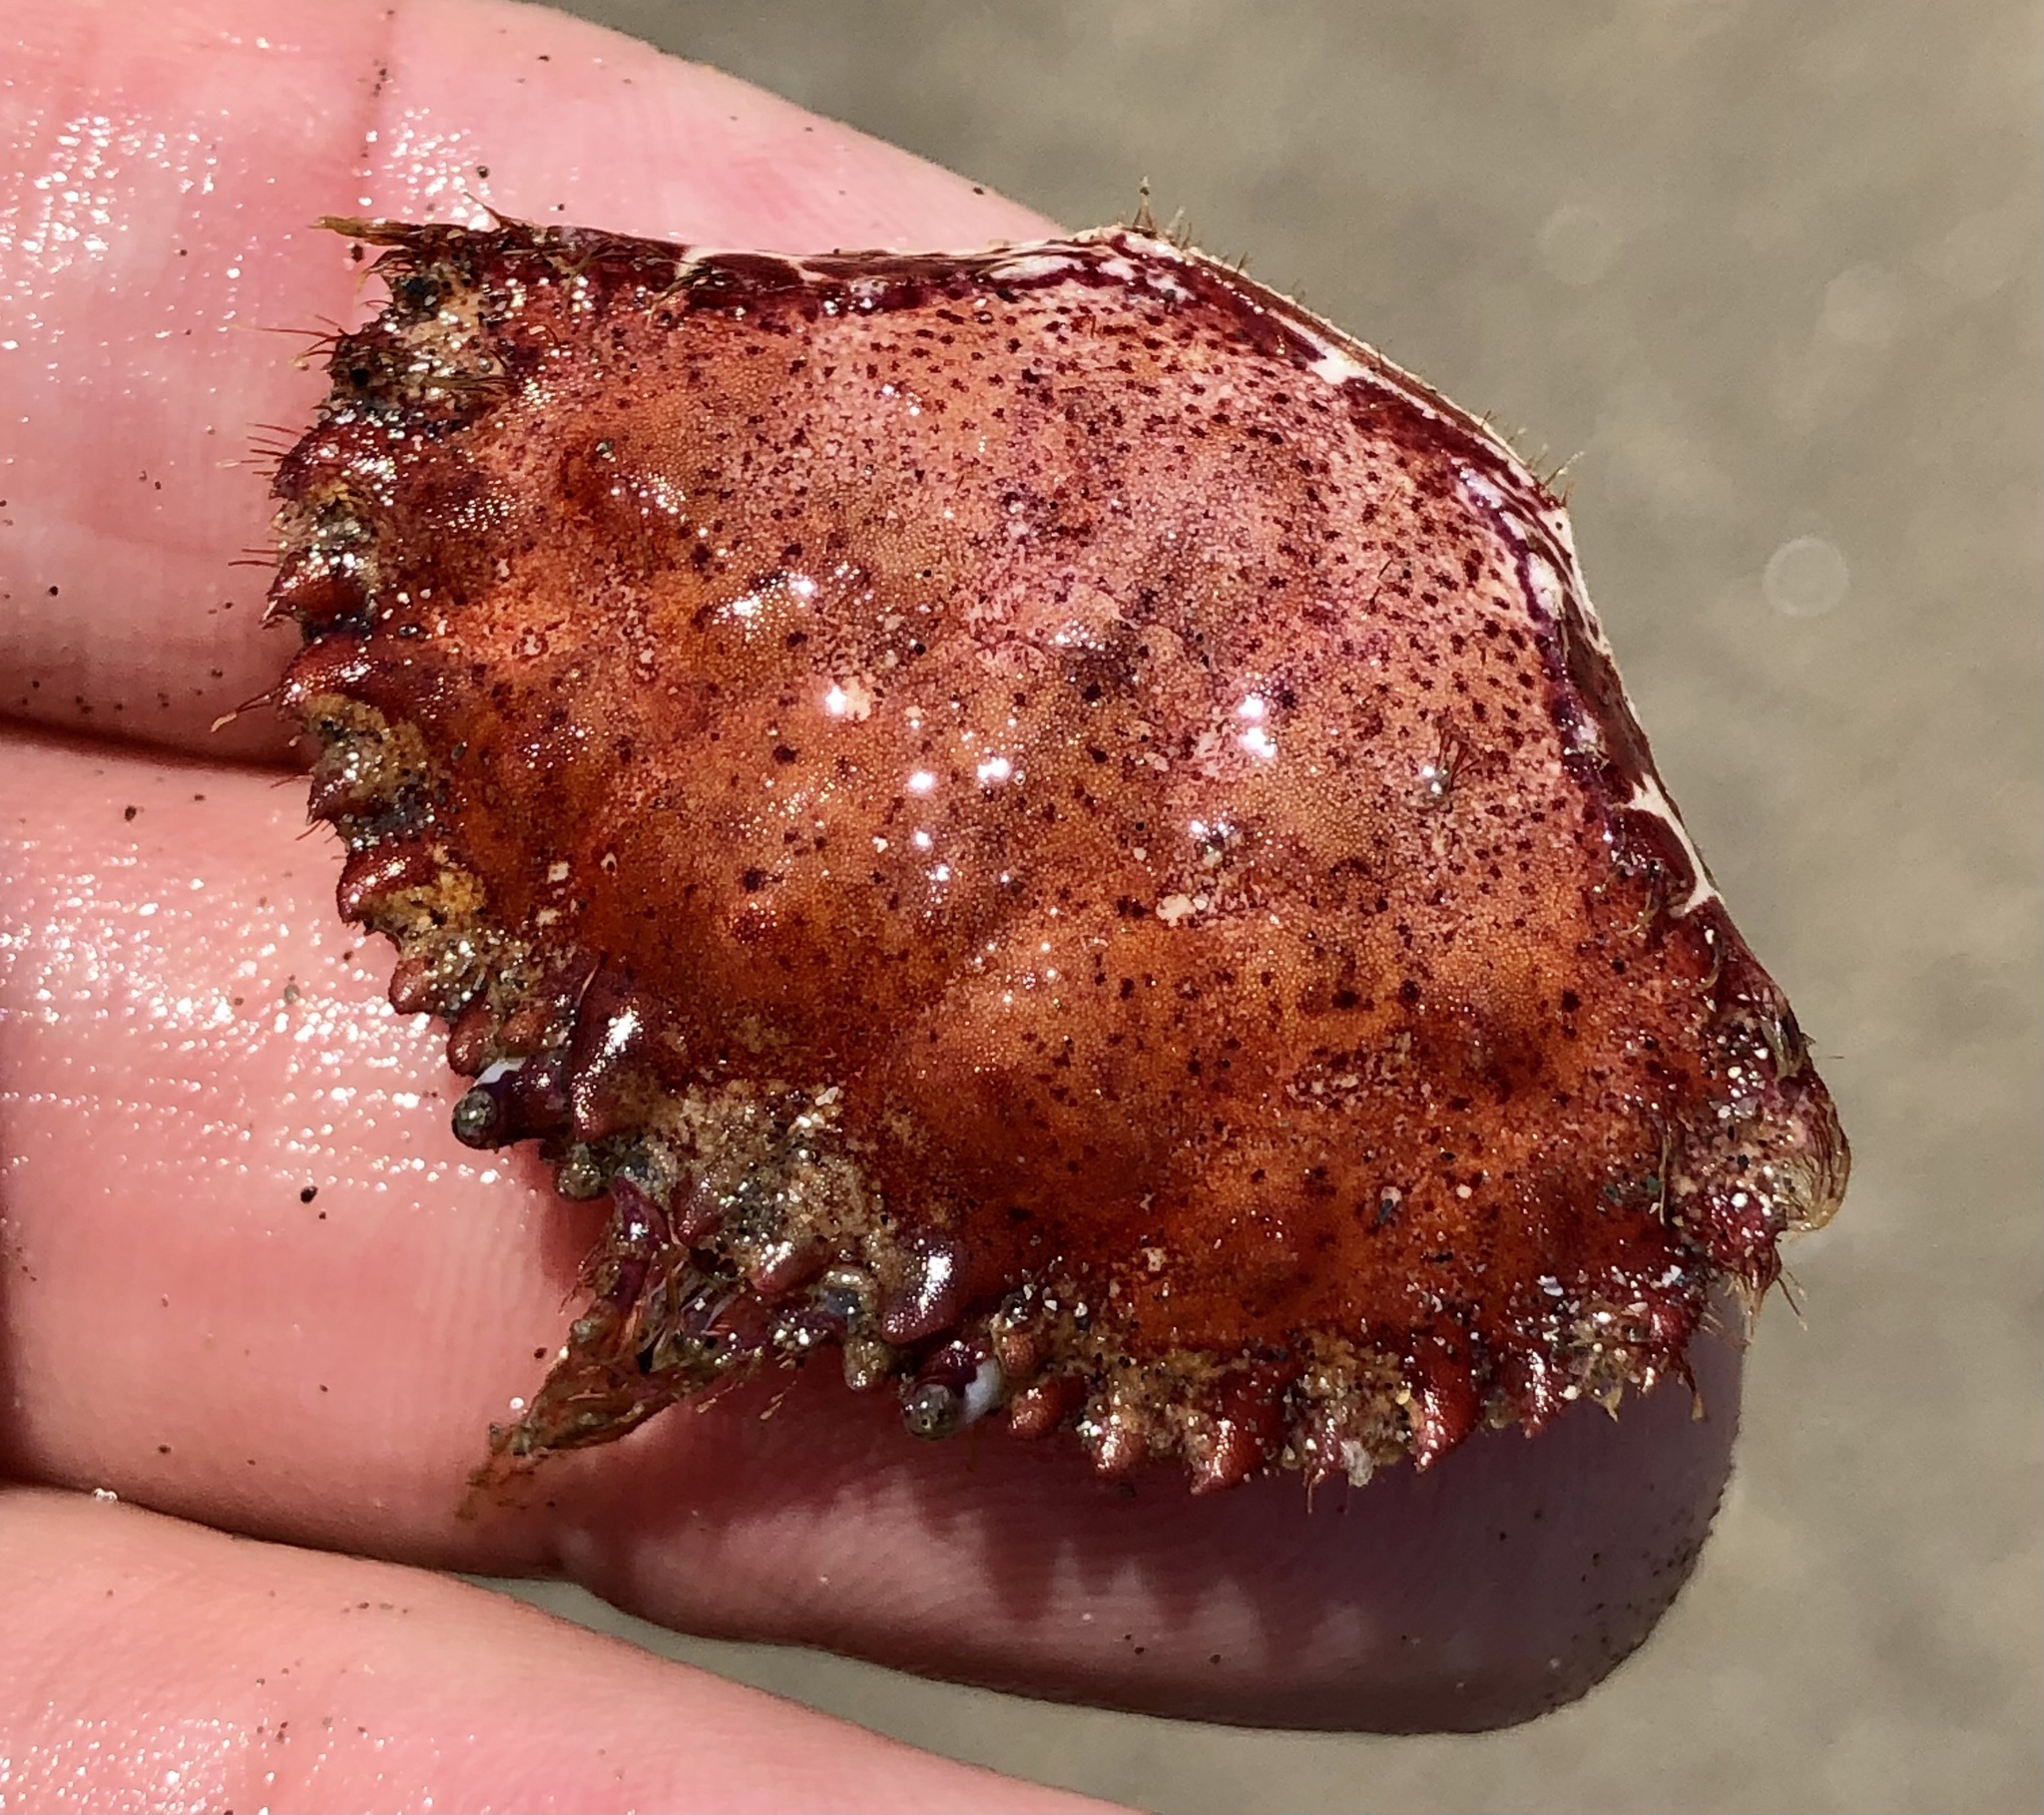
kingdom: Animalia
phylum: Arthropoda
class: Malacostraca
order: Decapoda
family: Cancridae
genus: Romaleon
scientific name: Romaleon antennarium
